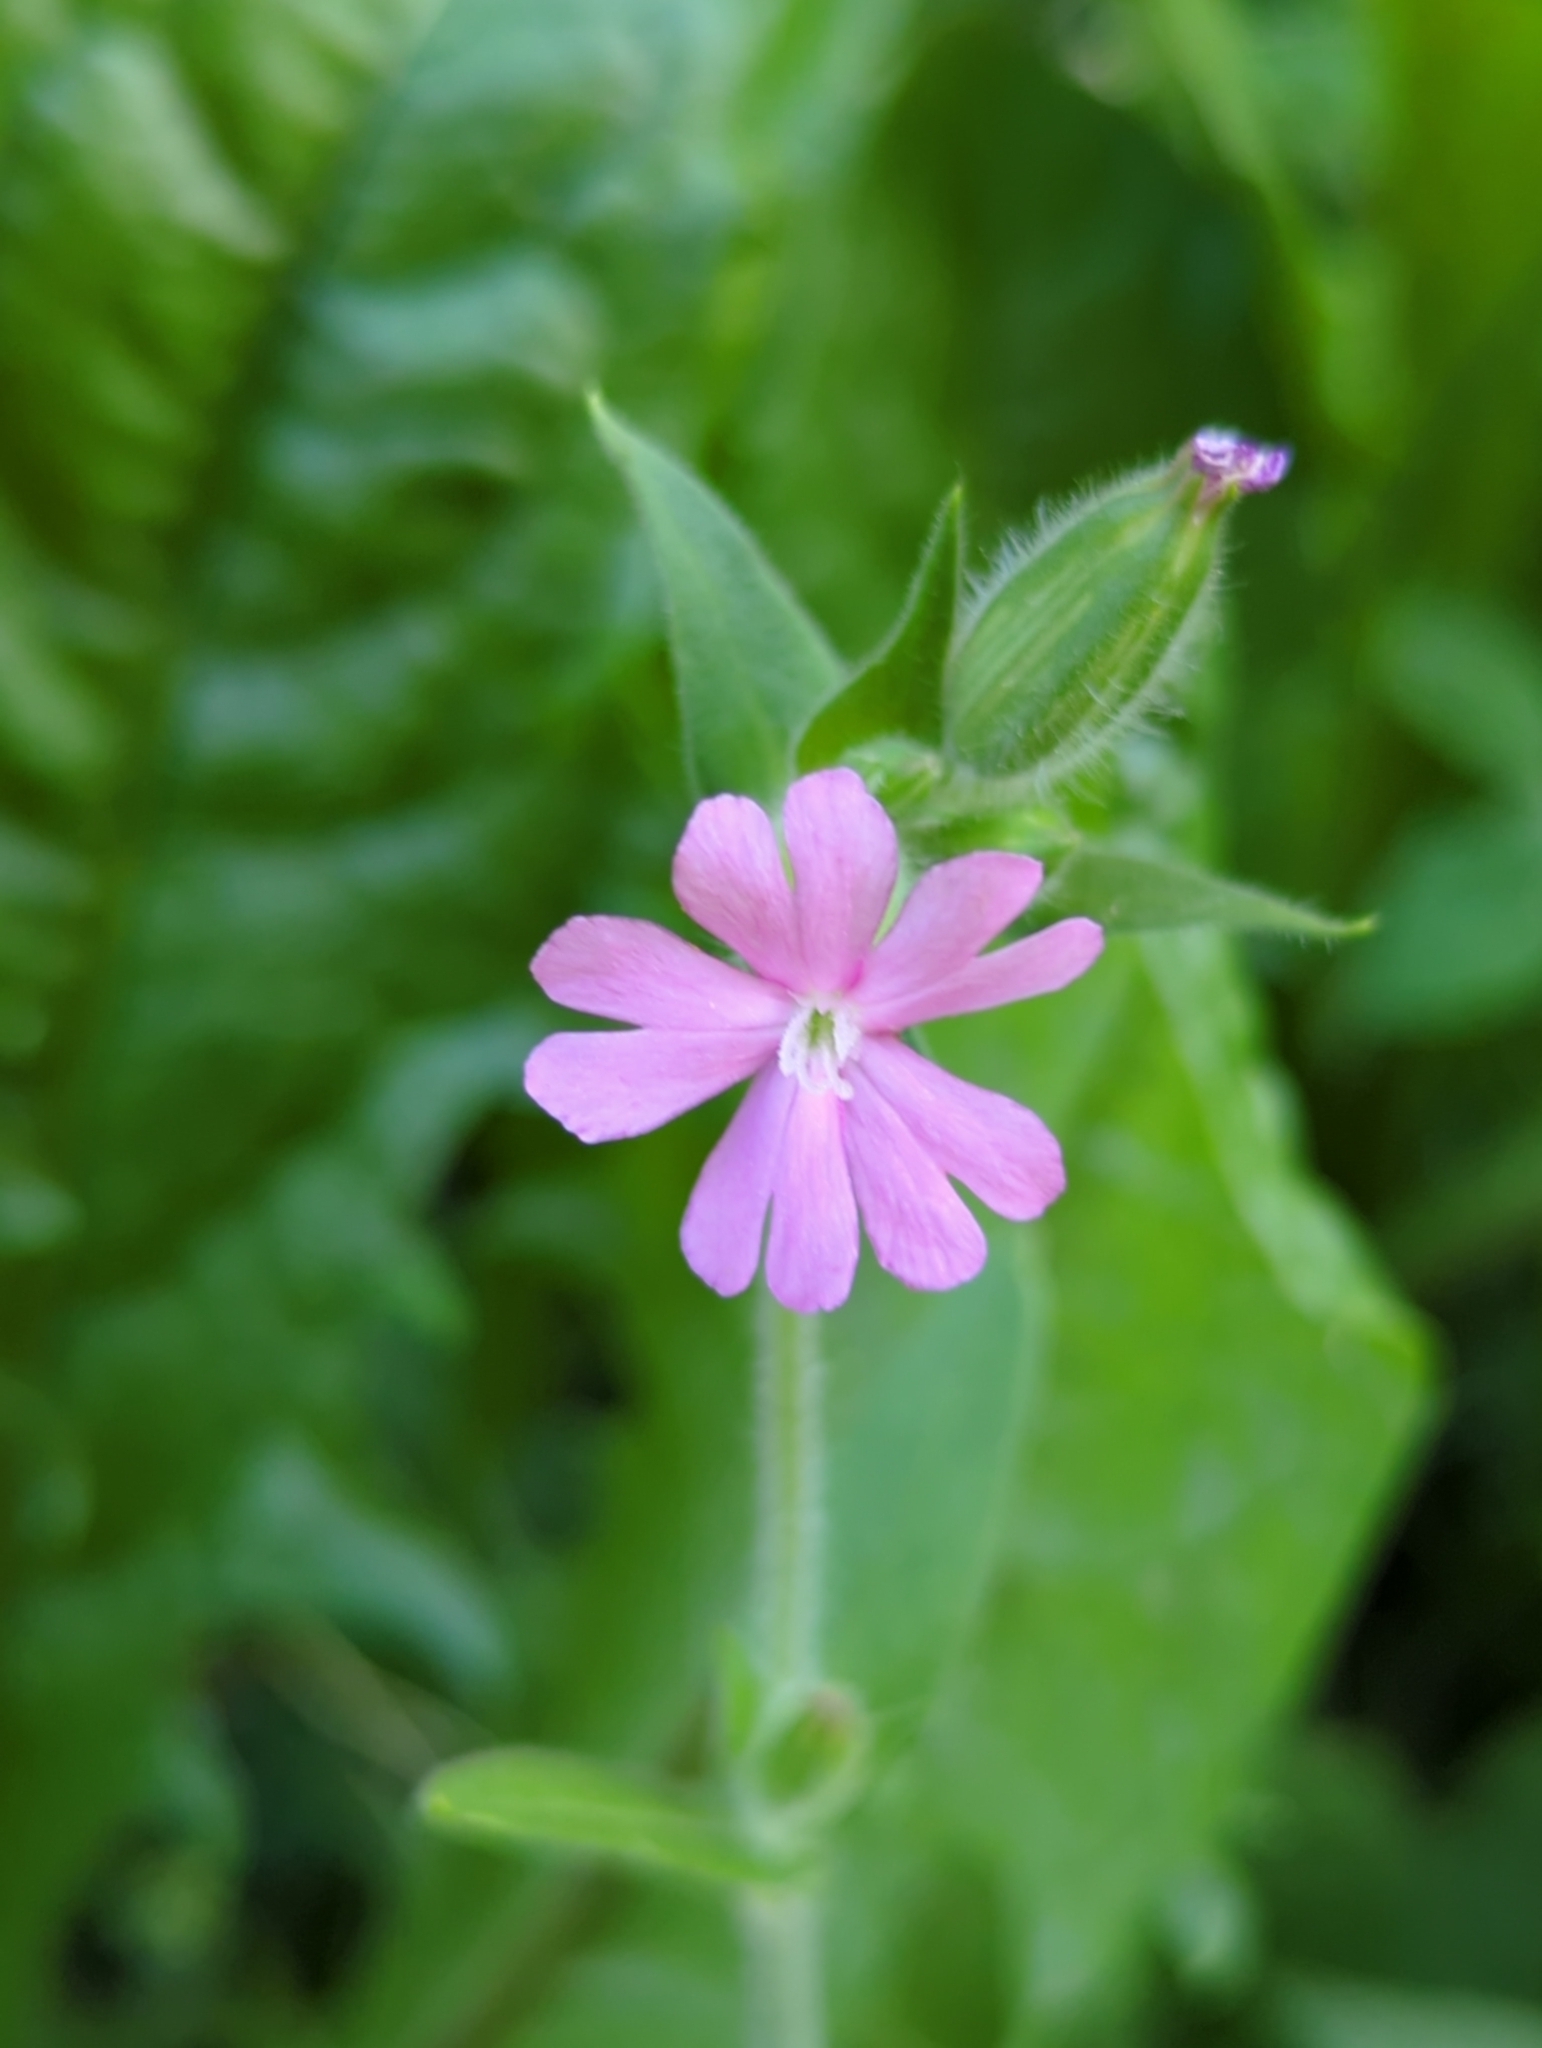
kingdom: Plantae
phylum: Tracheophyta
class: Magnoliopsida
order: Caryophyllales
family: Caryophyllaceae
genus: Silene
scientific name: Silene dioica
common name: Red campion
